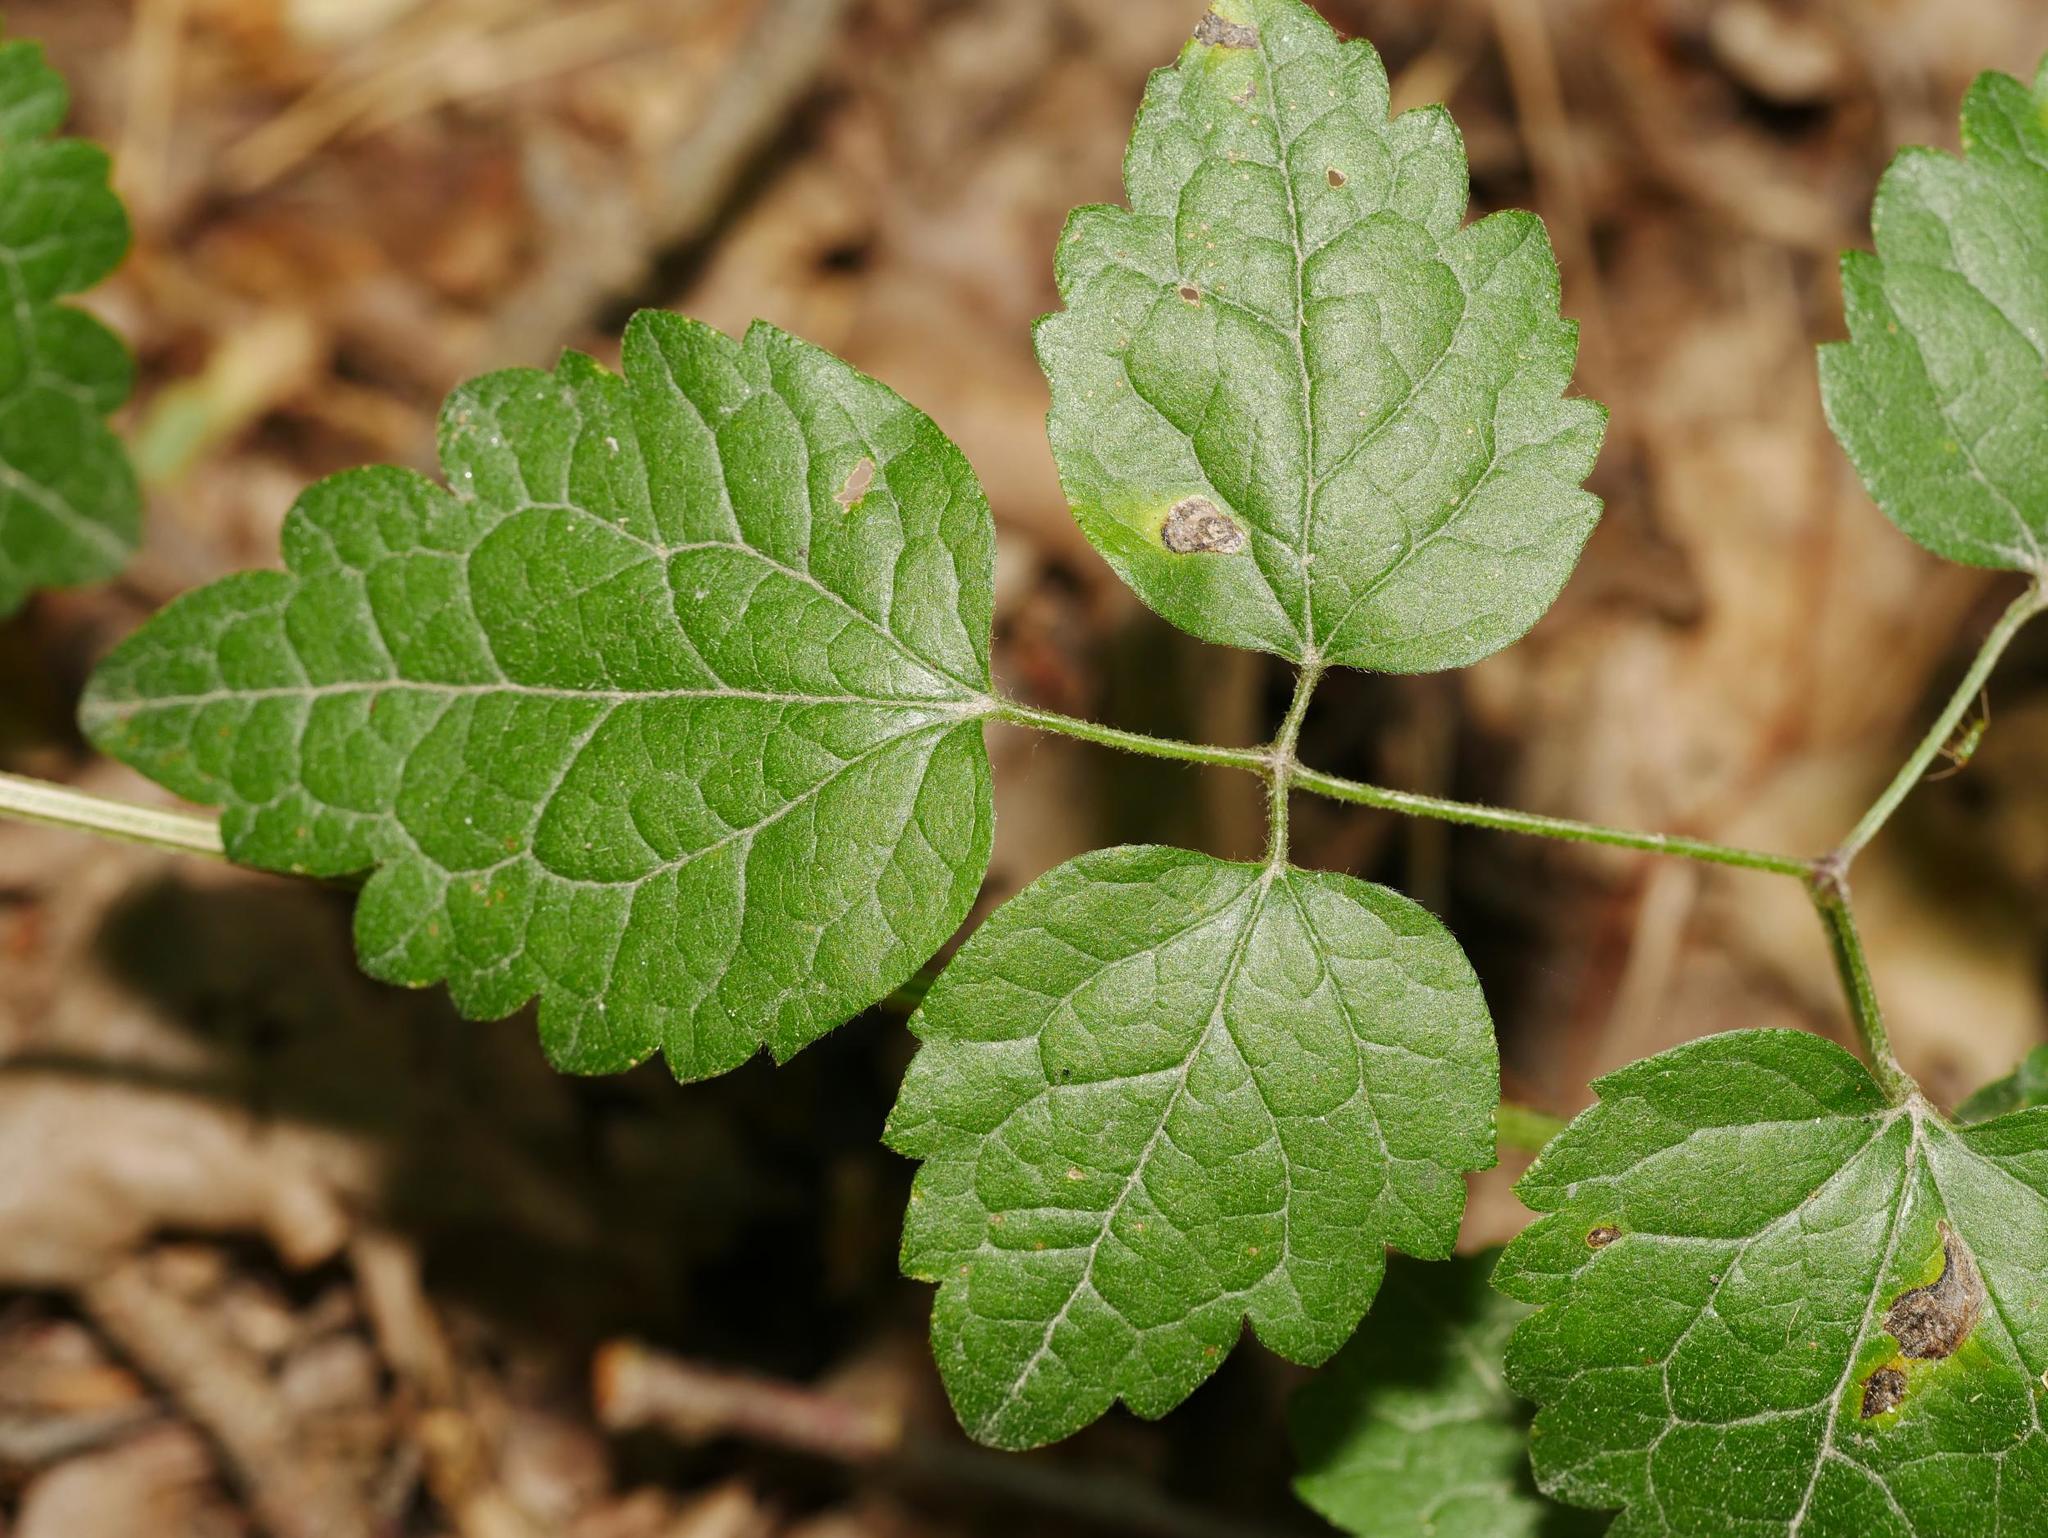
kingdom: Plantae
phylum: Tracheophyta
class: Magnoliopsida
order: Ranunculales
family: Ranunculaceae
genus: Clematis
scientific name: Clematis vitalba
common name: Evergreen clematis
